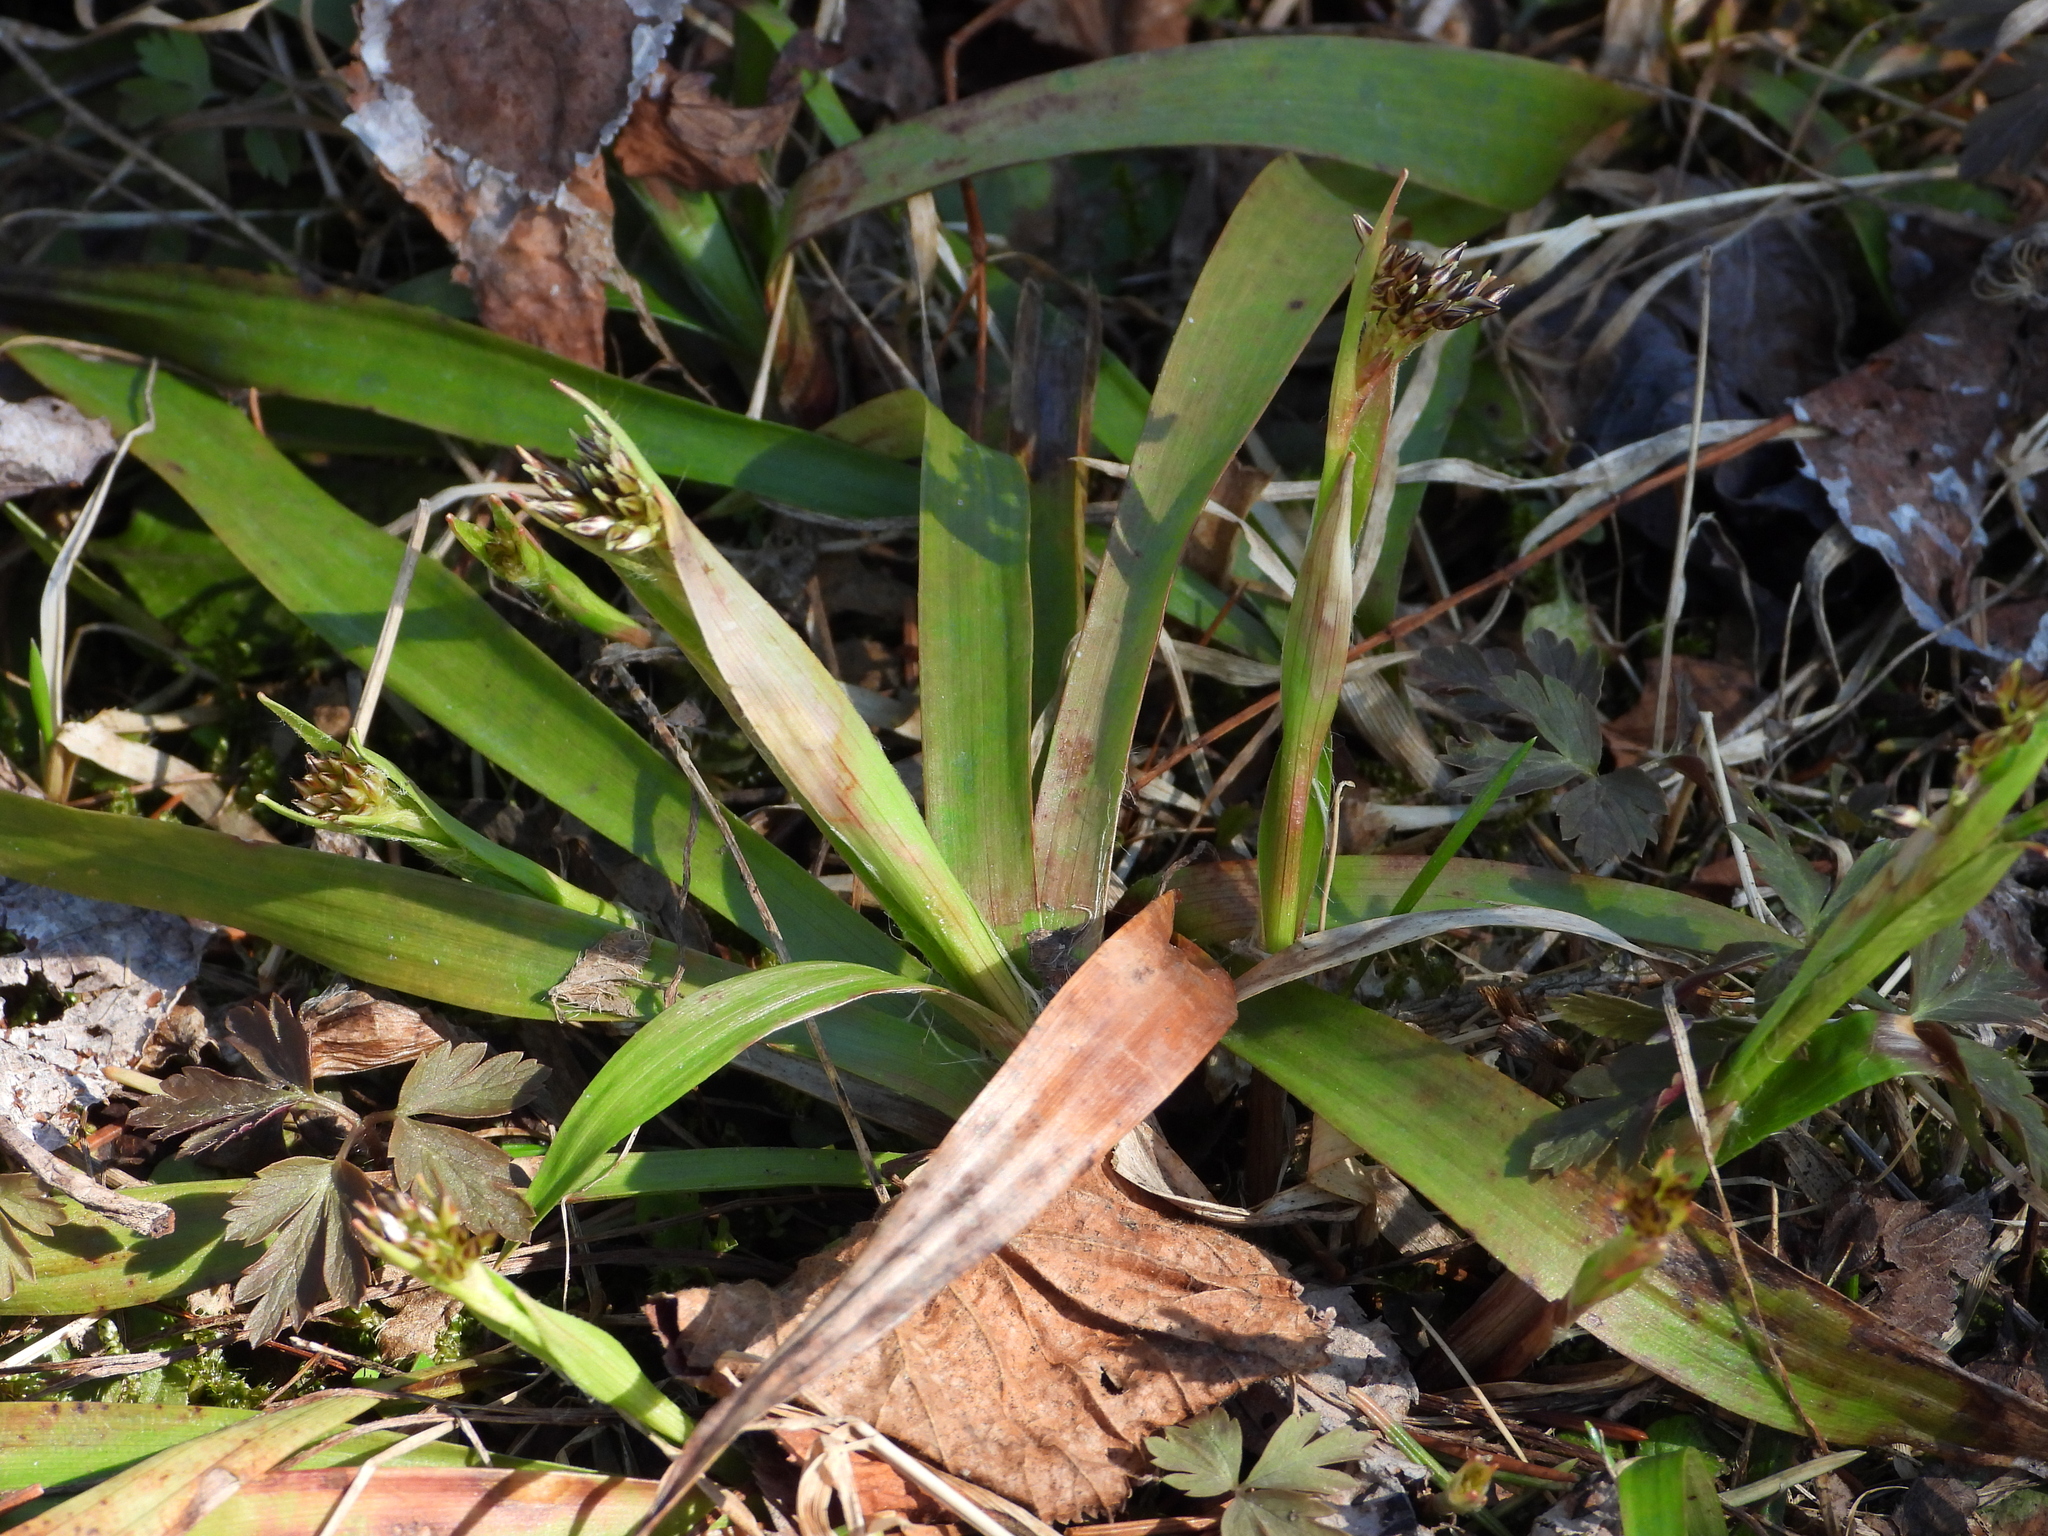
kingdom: Plantae
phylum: Tracheophyta
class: Liliopsida
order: Poales
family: Juncaceae
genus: Luzula
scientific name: Luzula pilosa
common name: Hairy wood-rush
